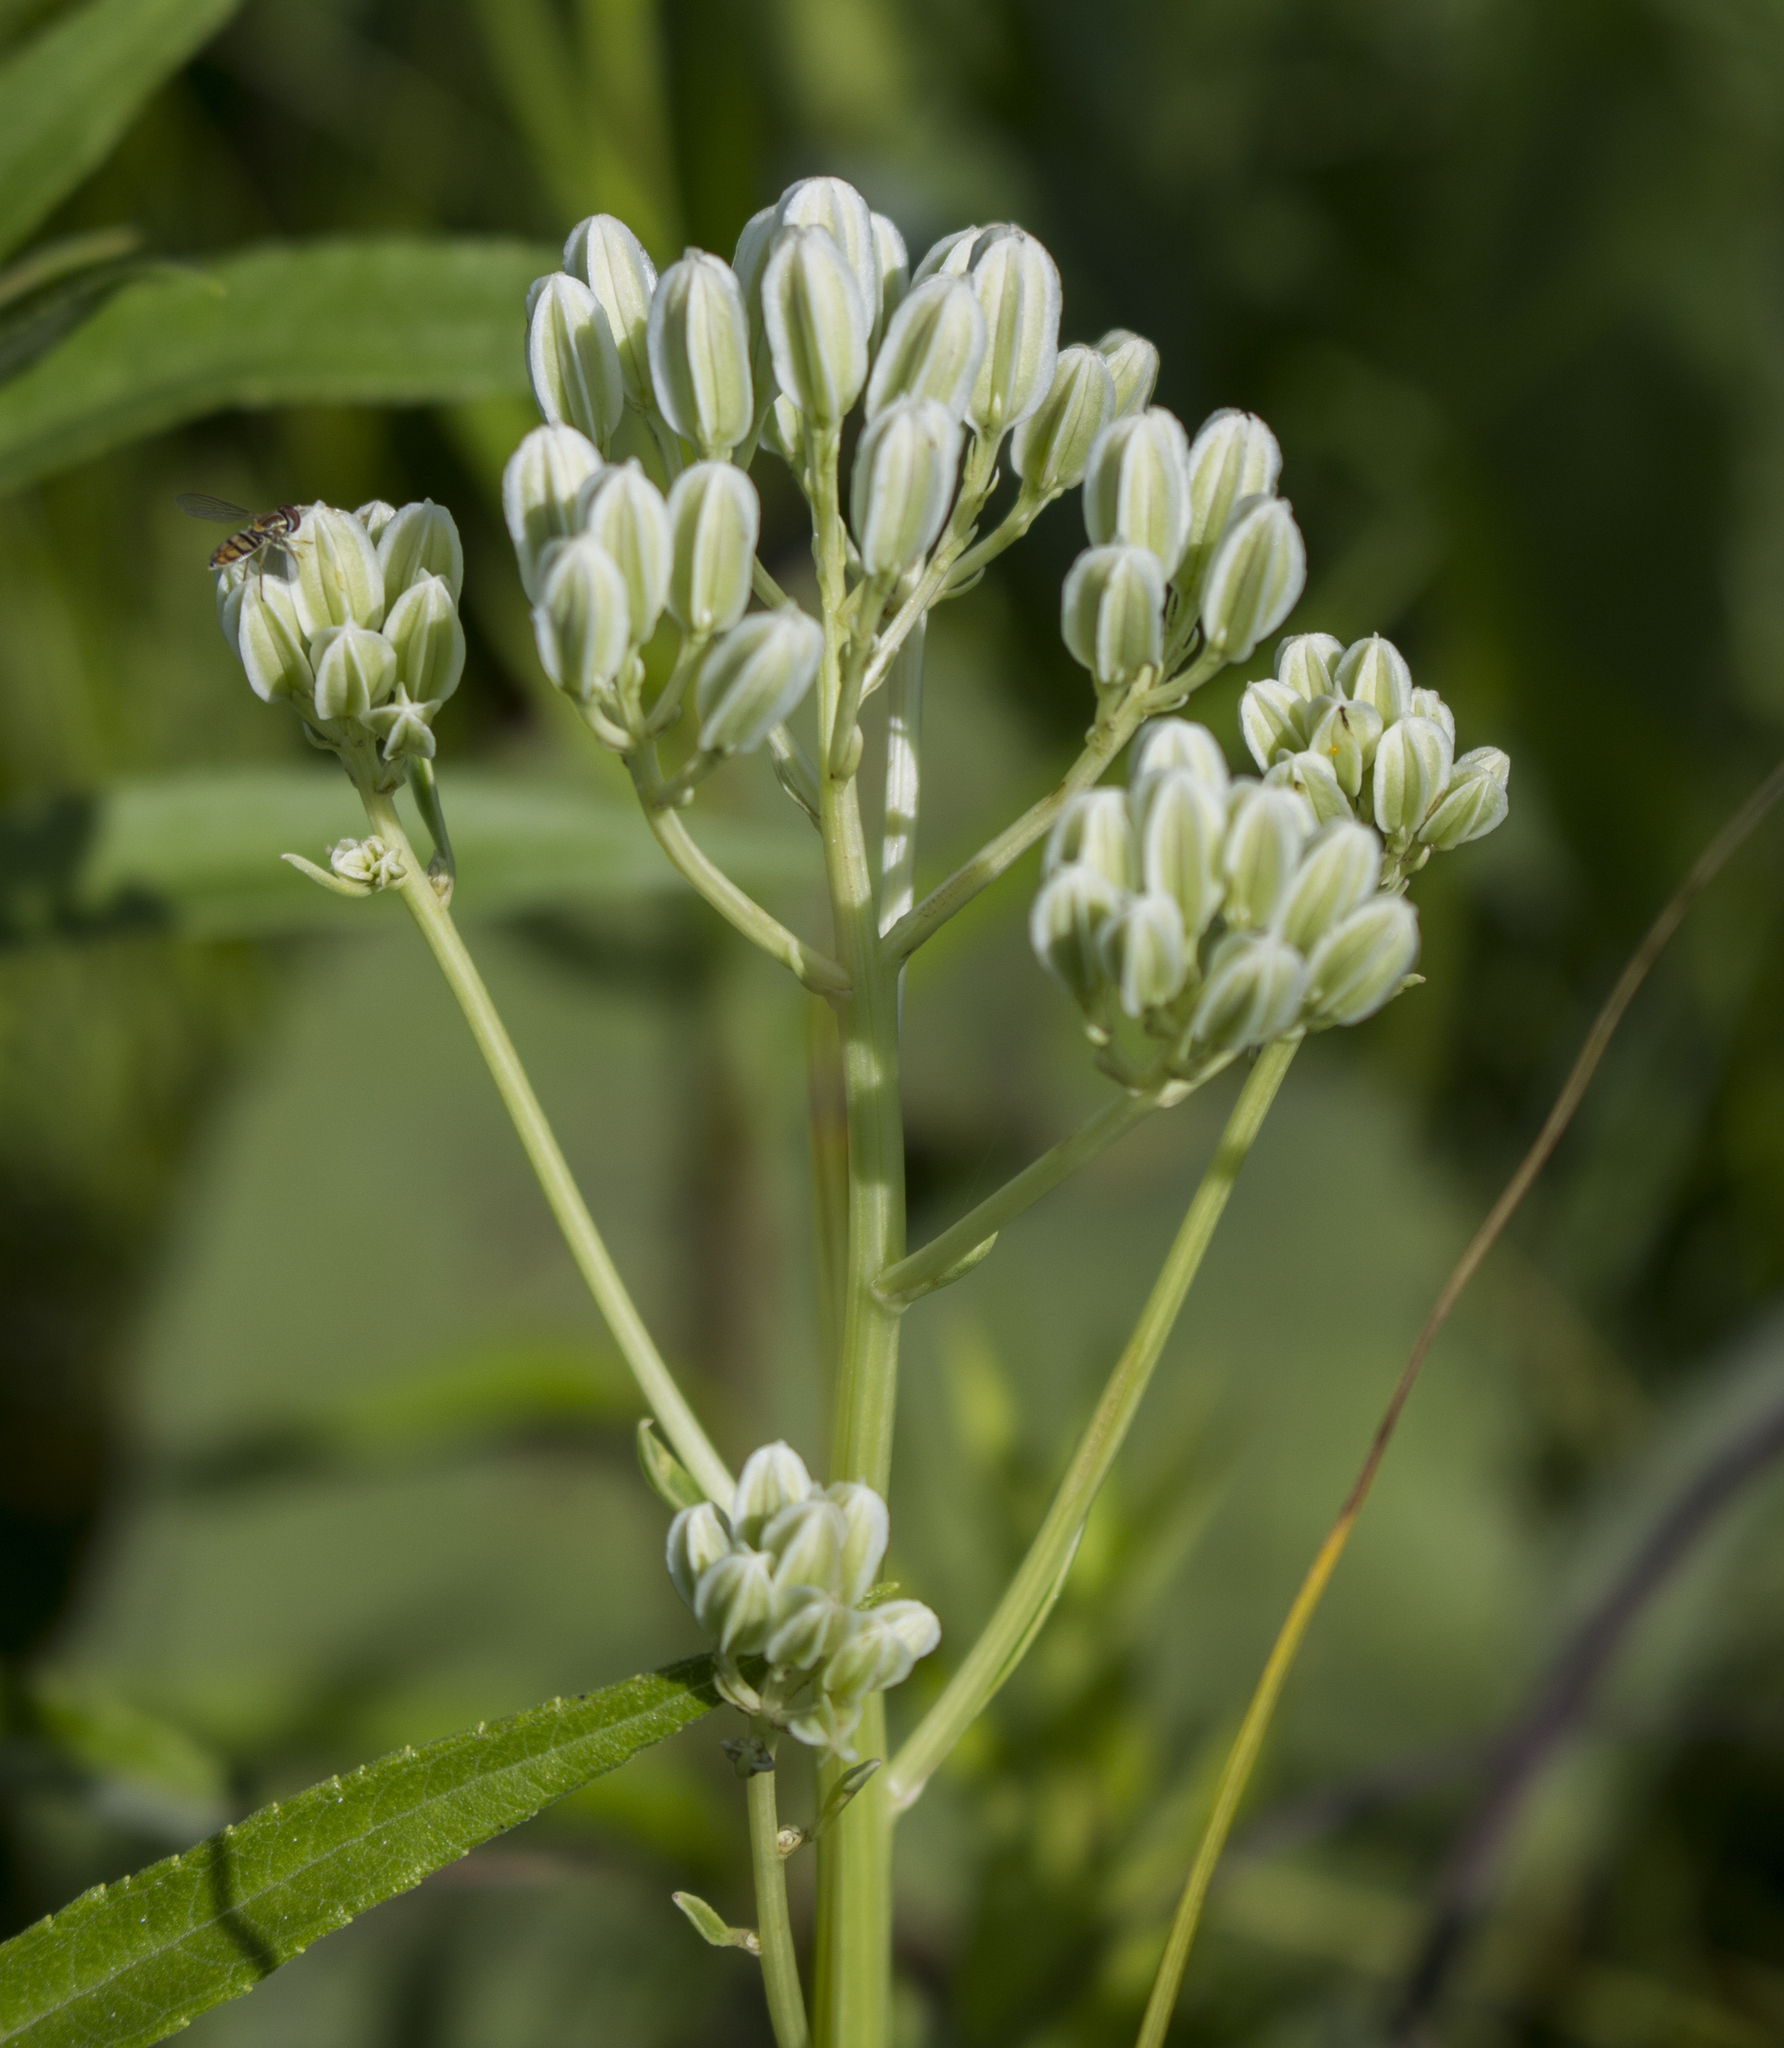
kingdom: Plantae
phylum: Tracheophyta
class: Magnoliopsida
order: Asterales
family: Asteraceae
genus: Arnoglossum
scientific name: Arnoglossum plantagineum
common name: Groove-stemmed indian-plantain
